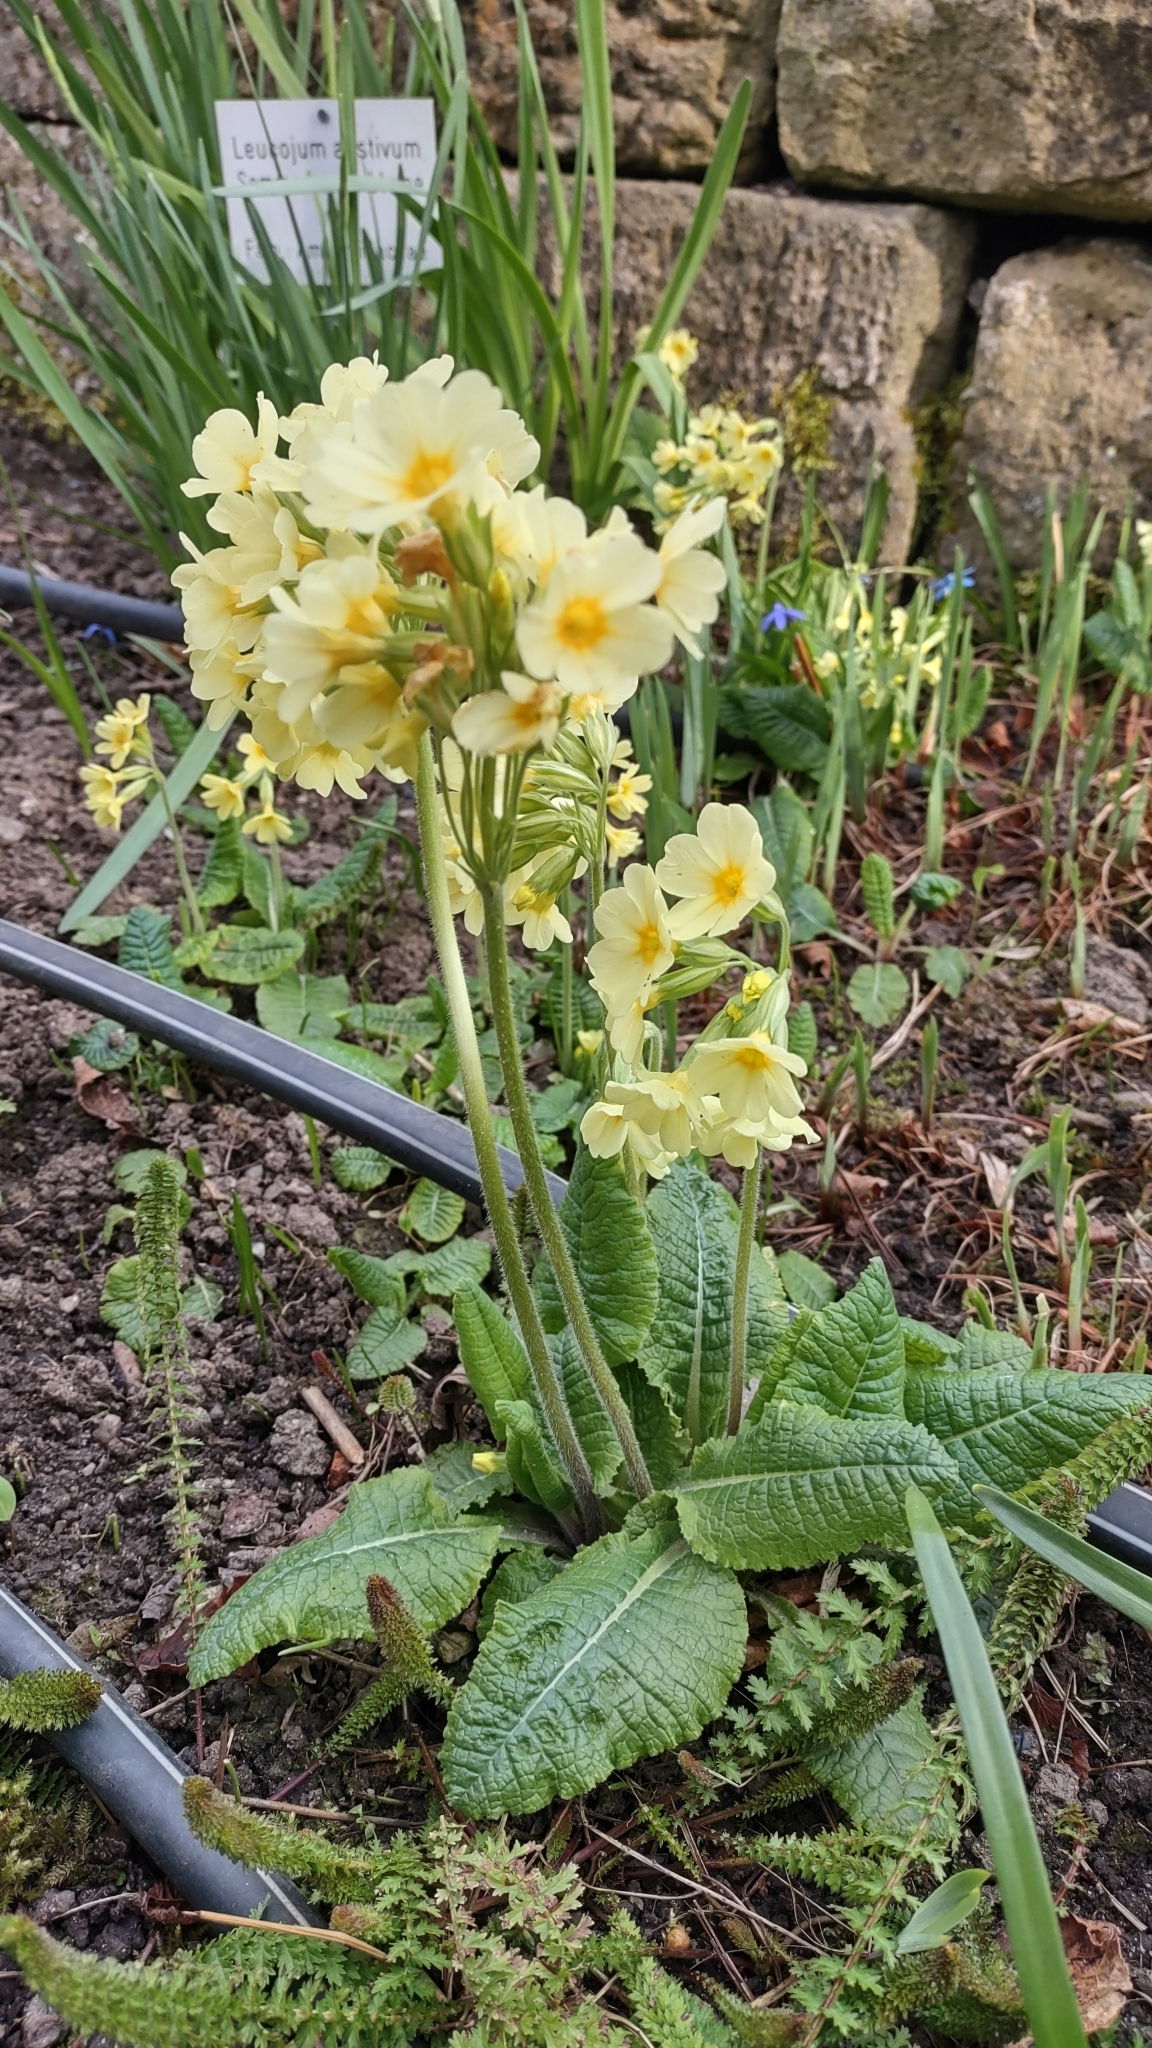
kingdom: Plantae
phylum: Tracheophyta
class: Magnoliopsida
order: Ericales
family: Primulaceae
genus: Primula
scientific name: Primula elatior
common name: Oxlip
